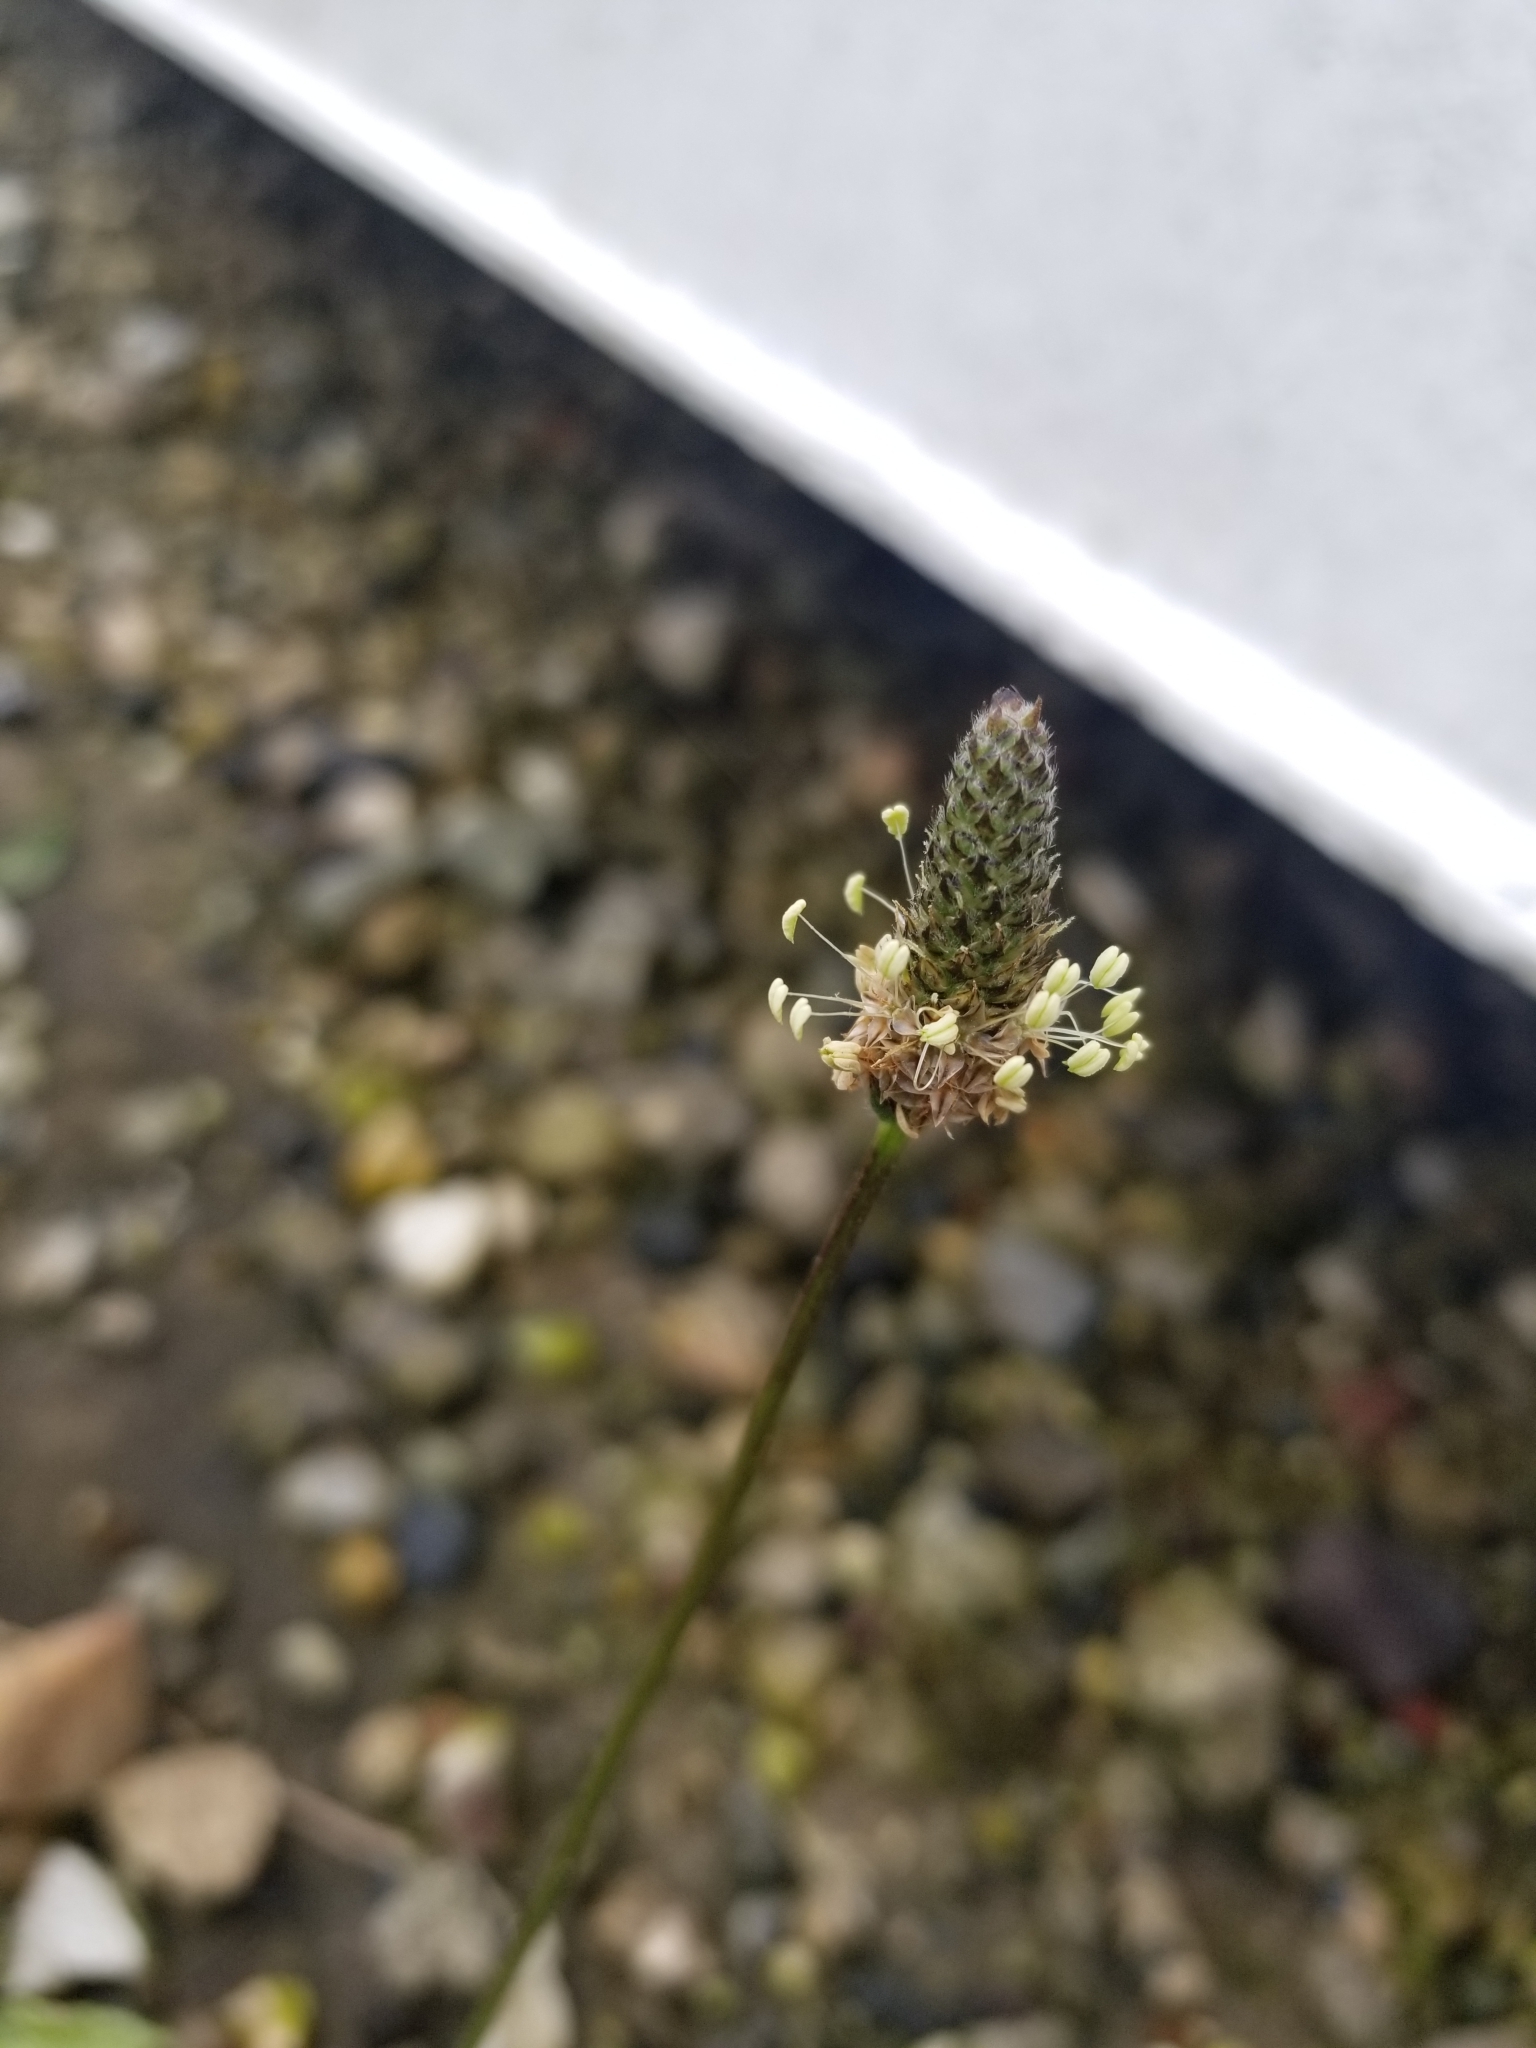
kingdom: Plantae
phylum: Tracheophyta
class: Magnoliopsida
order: Lamiales
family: Plantaginaceae
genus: Plantago
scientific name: Plantago lanceolata
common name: Ribwort plantain
